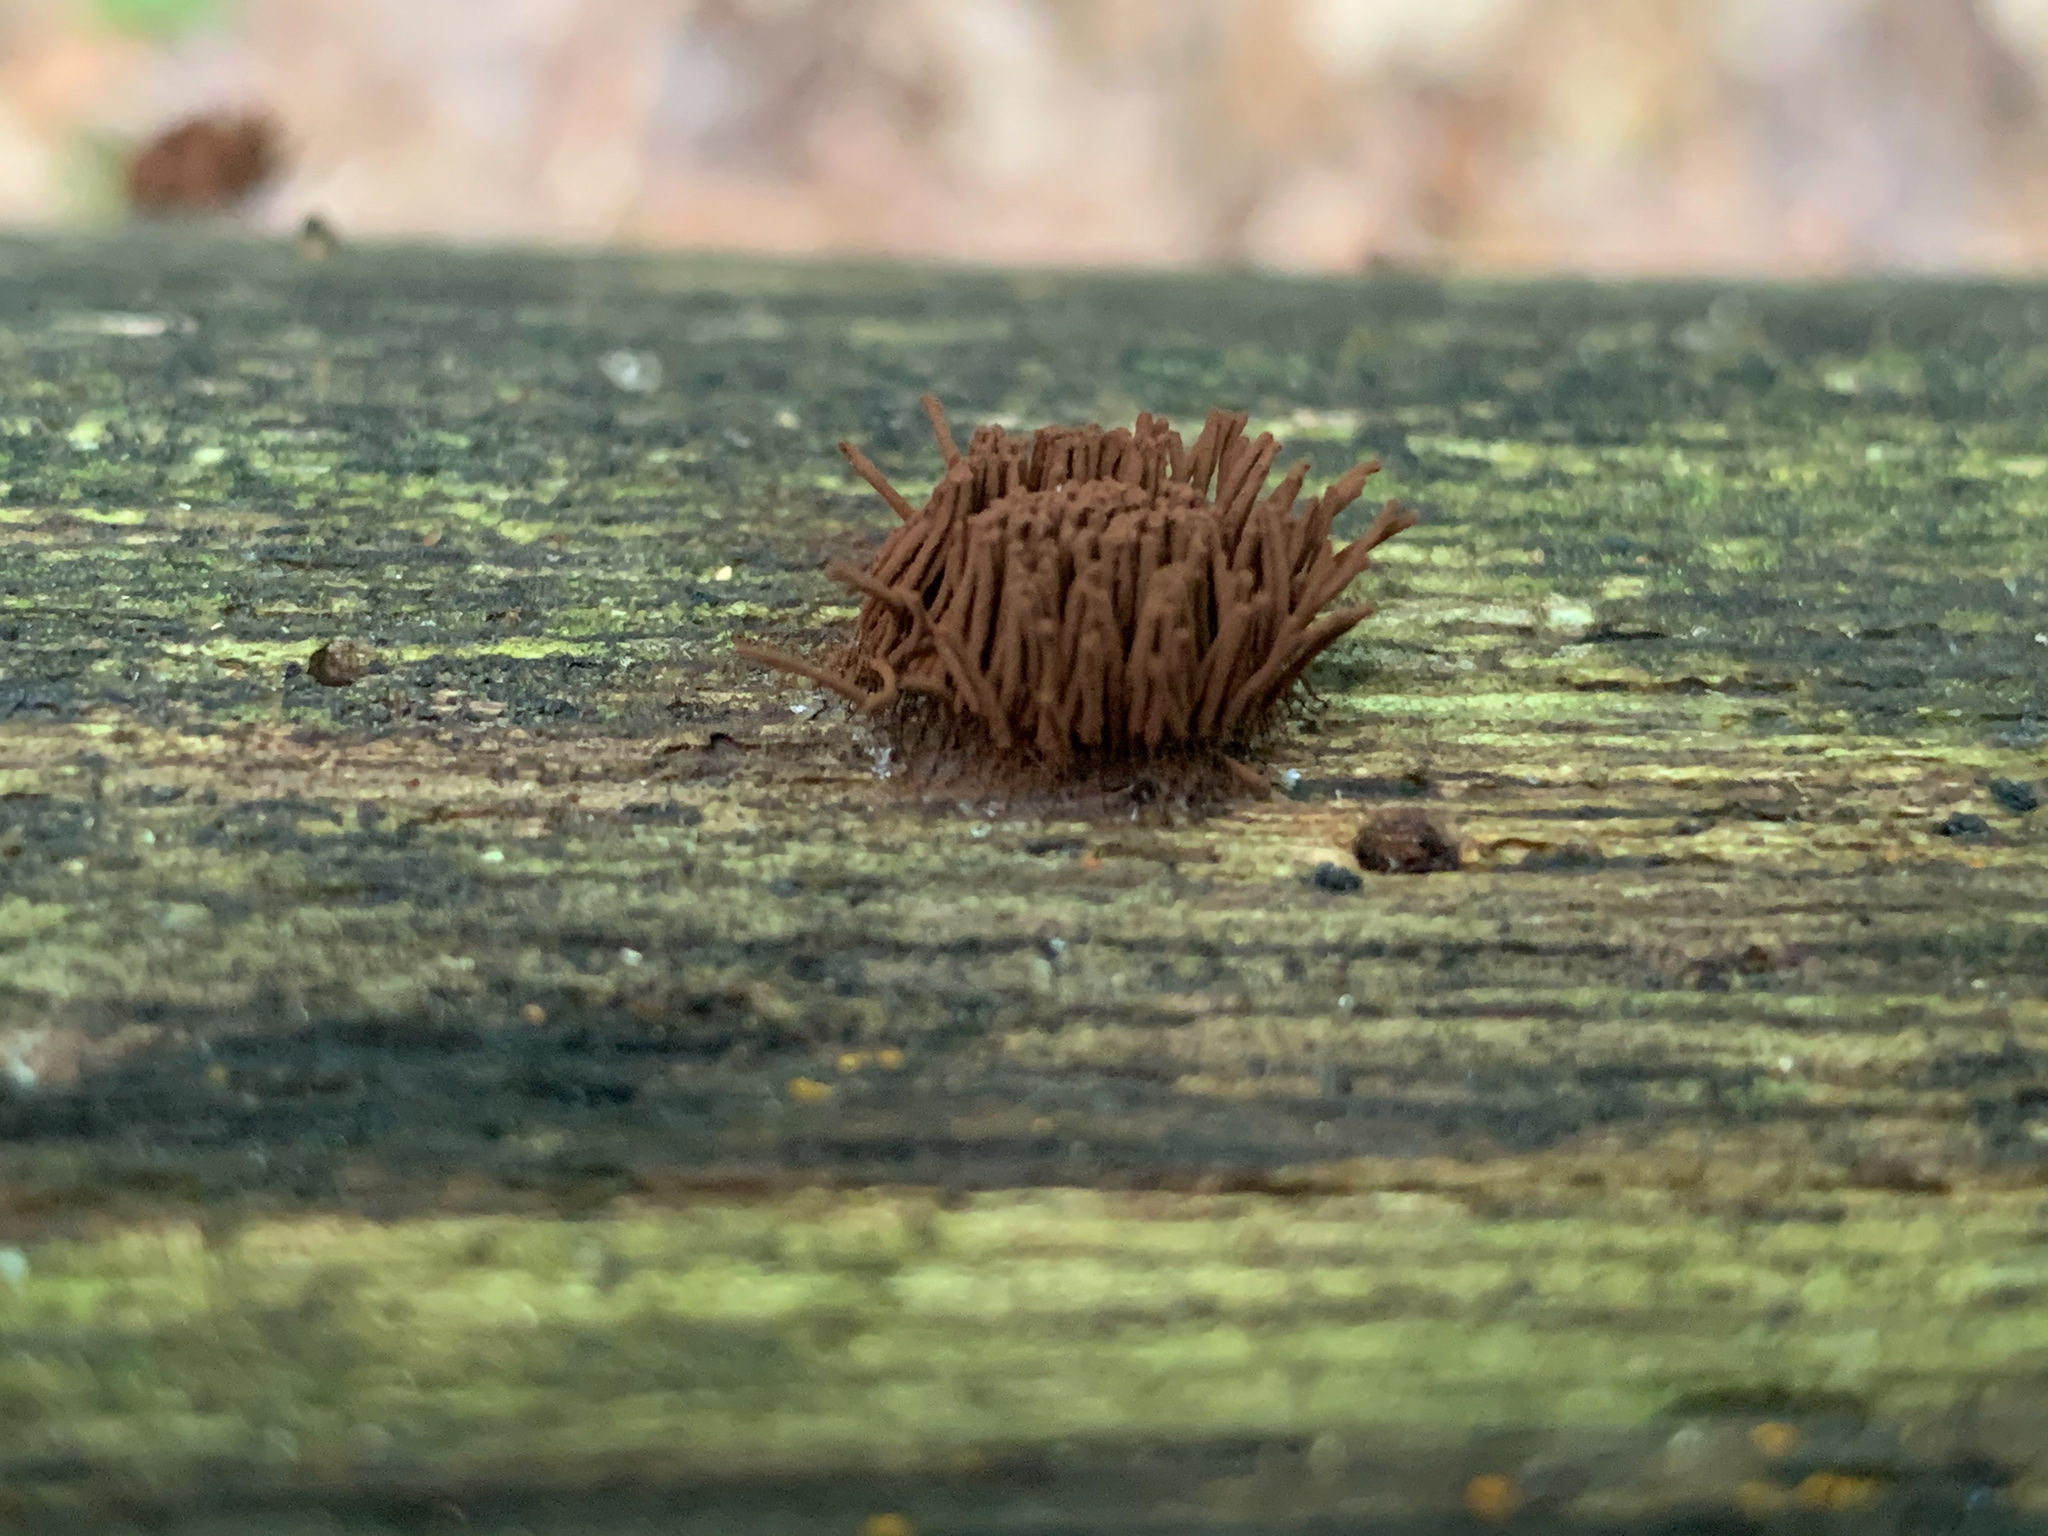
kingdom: Protozoa
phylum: Mycetozoa
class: Myxomycetes
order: Stemonitidales
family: Stemonitidaceae
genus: Stemonitis
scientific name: Stemonitis splendens
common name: Chocolate tube slime
